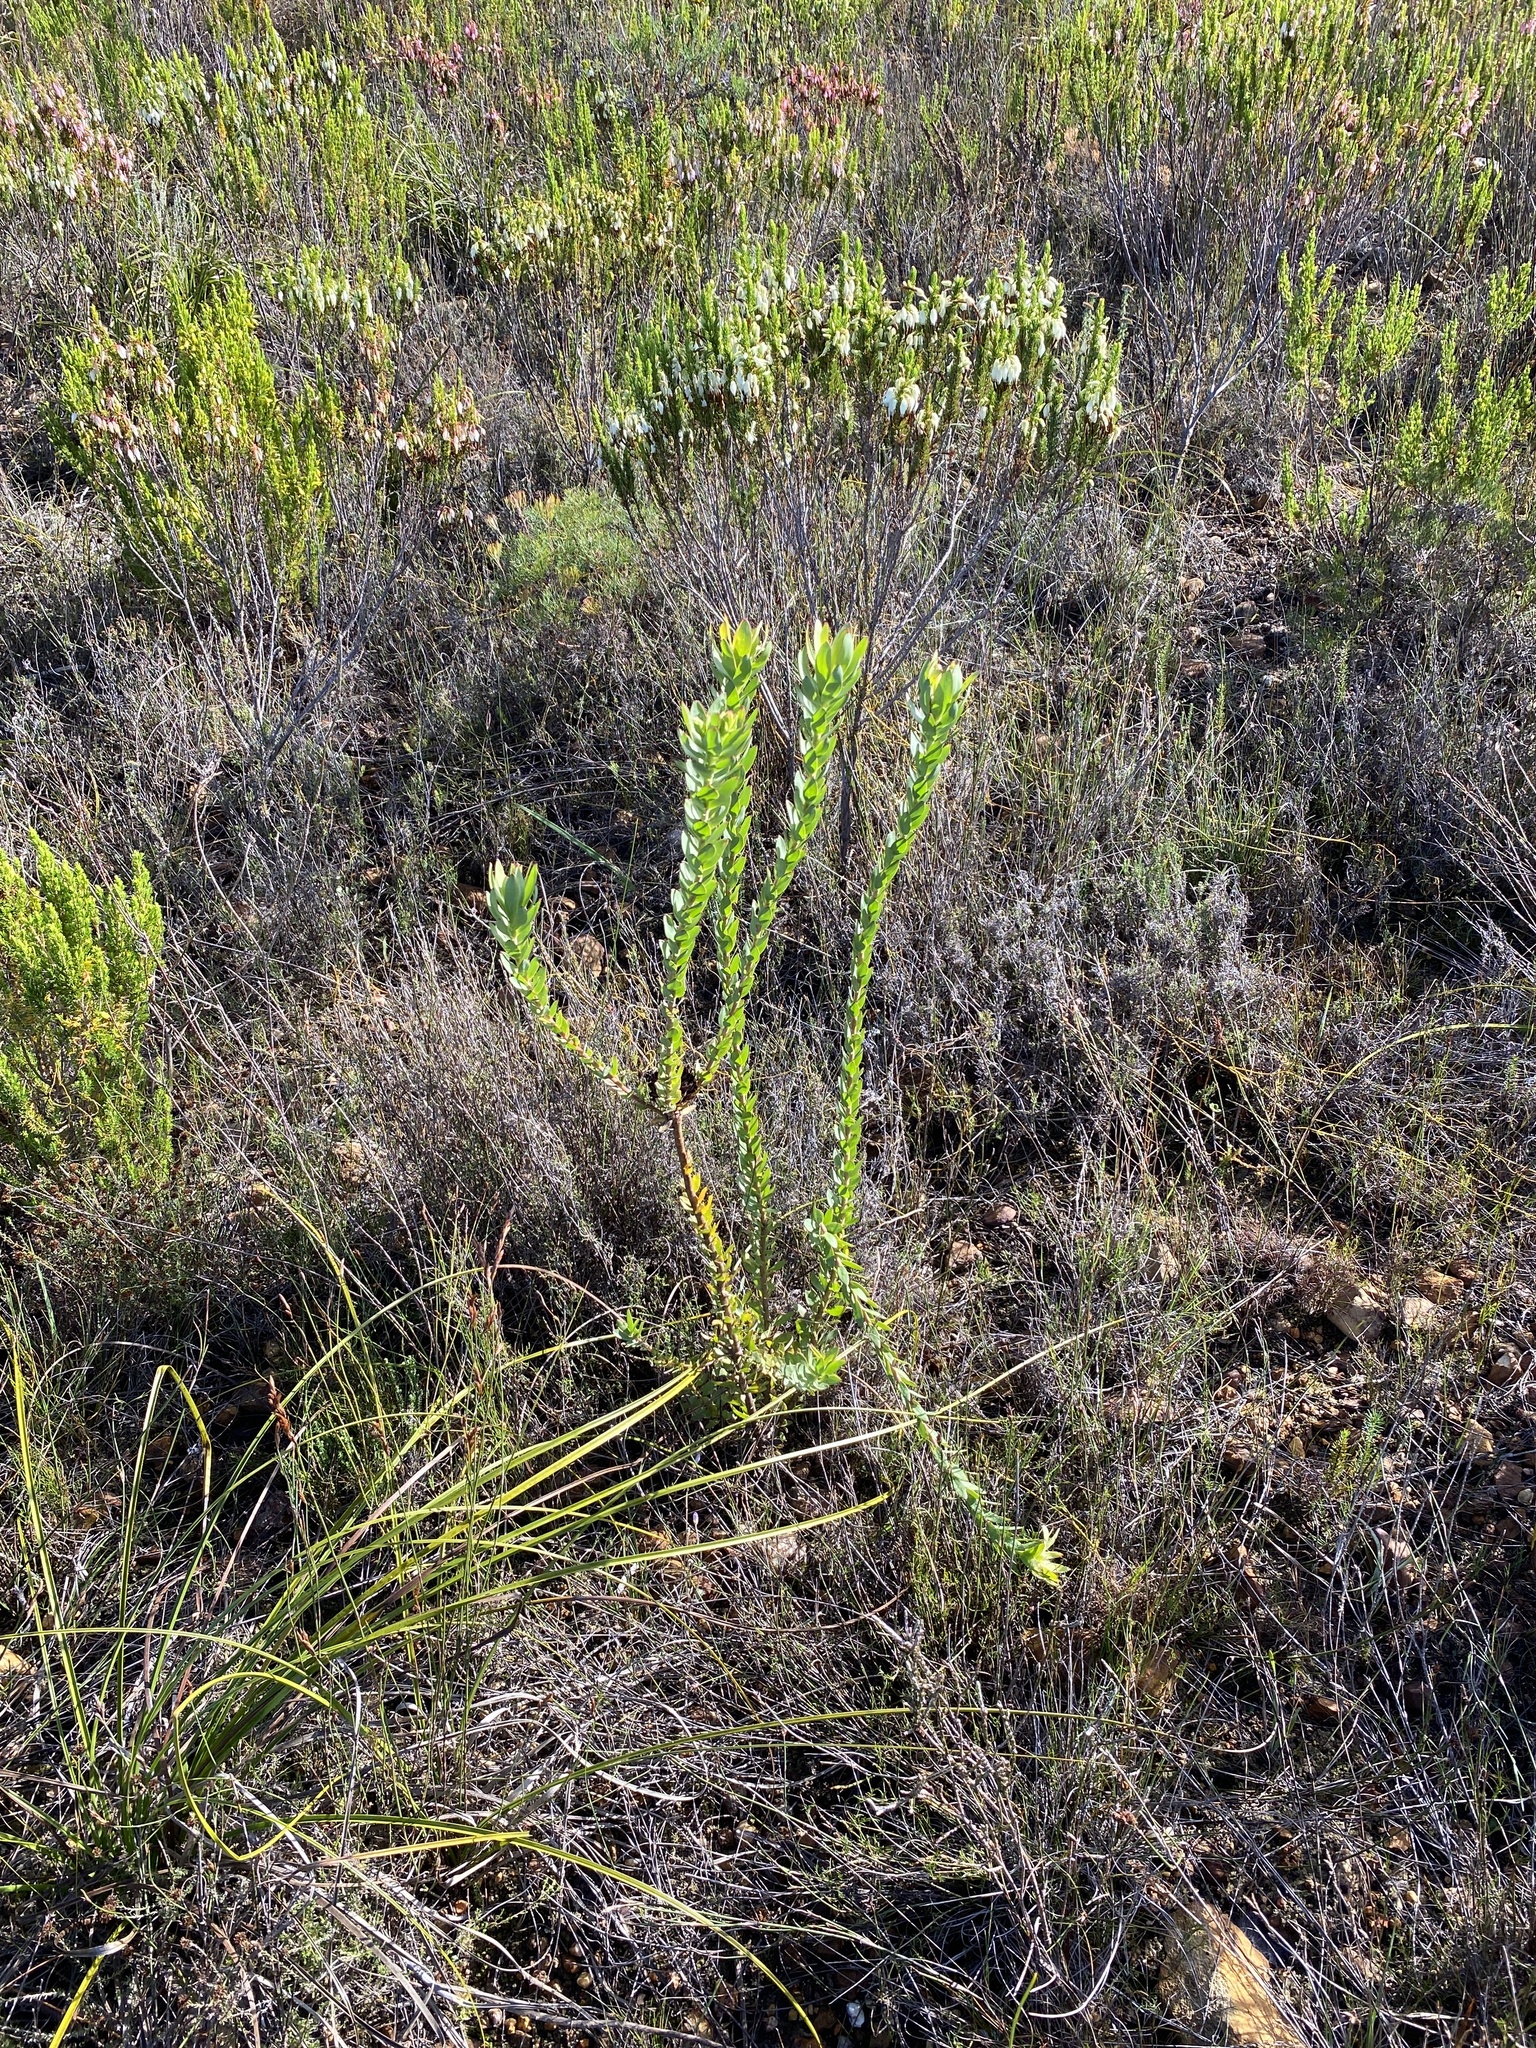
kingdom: Plantae
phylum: Tracheophyta
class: Magnoliopsida
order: Proteales
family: Proteaceae
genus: Leucadendron
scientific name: Leucadendron elimense
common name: Elim conebush
